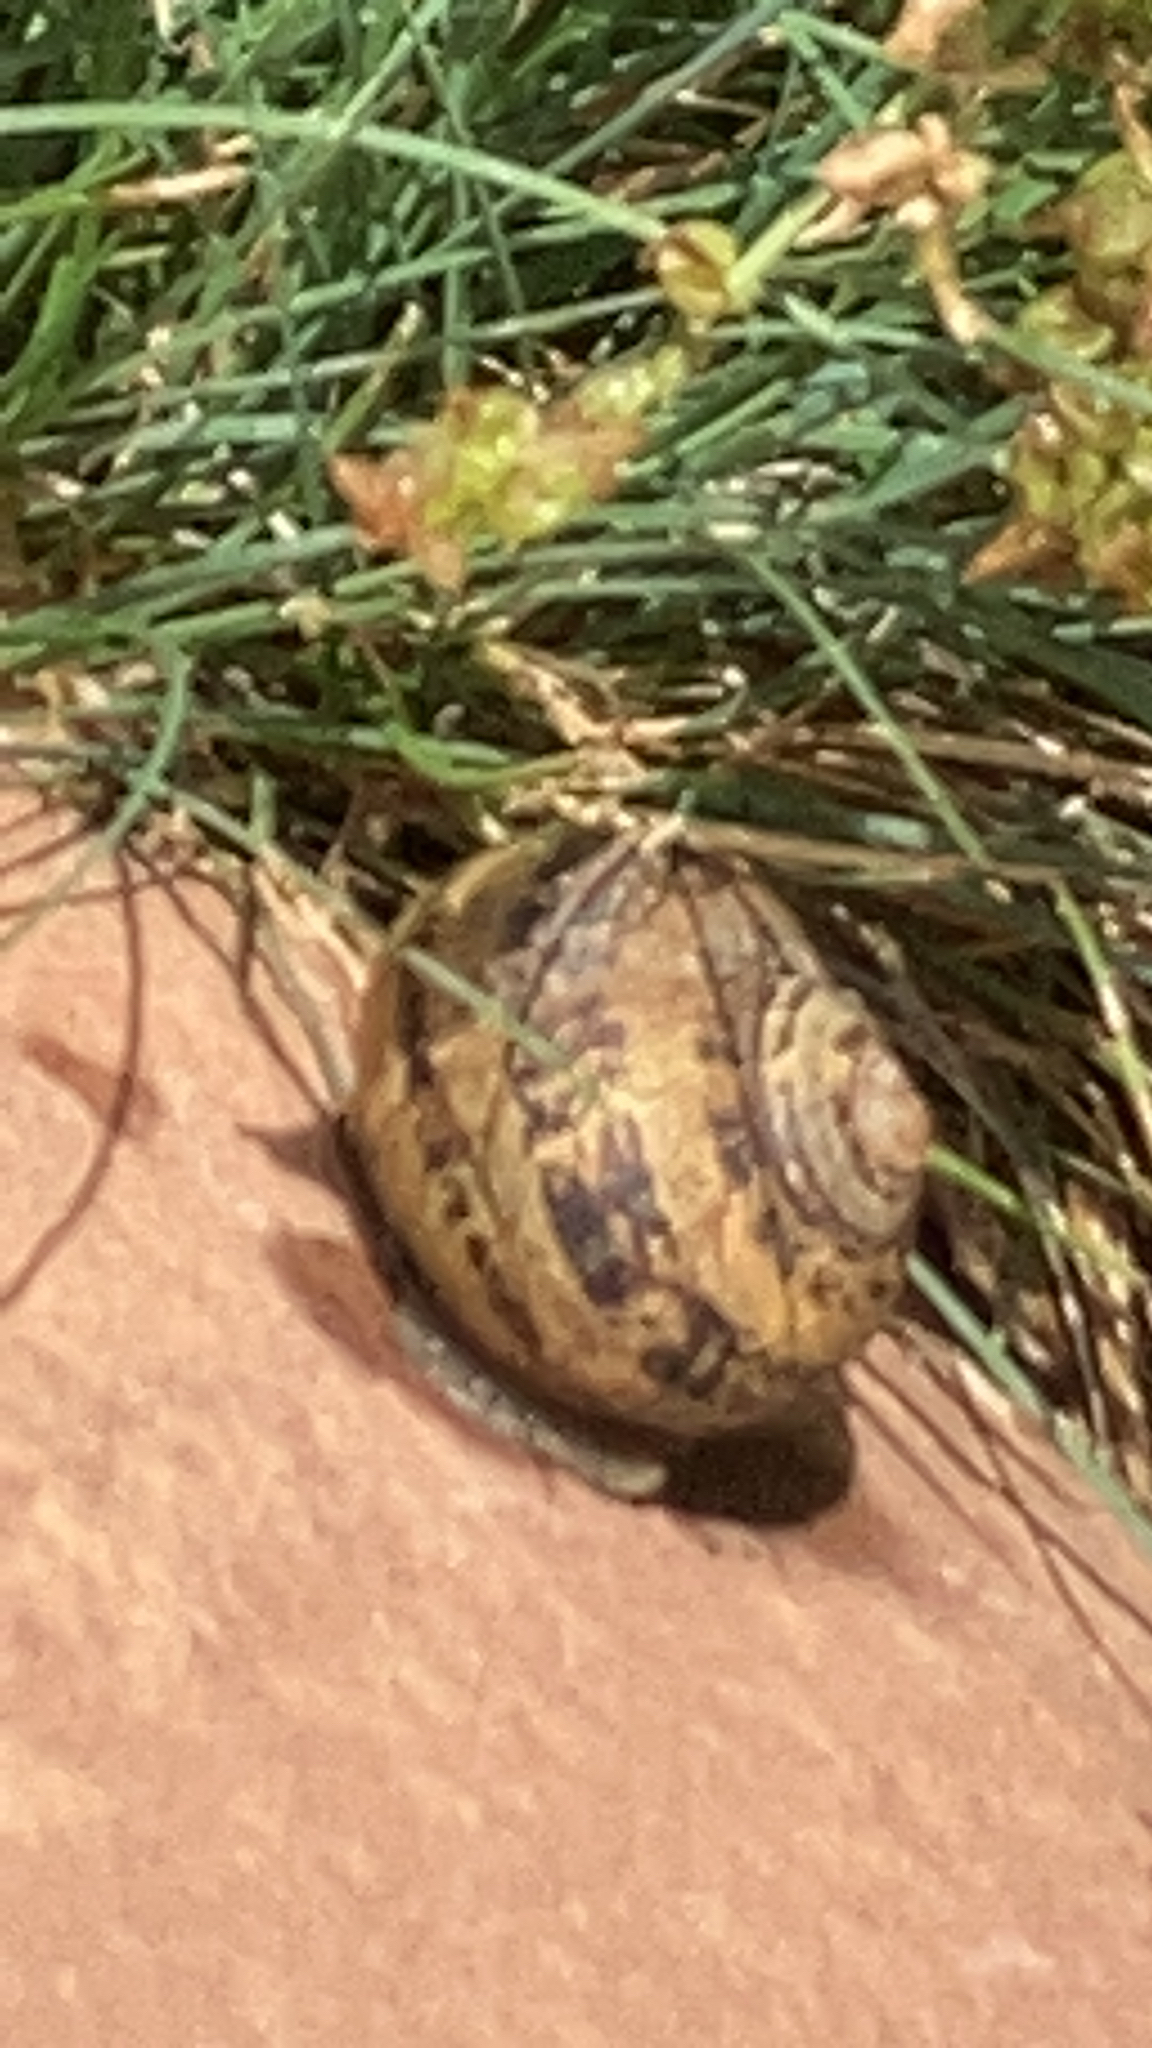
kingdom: Animalia
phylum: Mollusca
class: Gastropoda
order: Stylommatophora
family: Helicidae
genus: Cornu
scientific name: Cornu aspersum
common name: Brown garden snail
